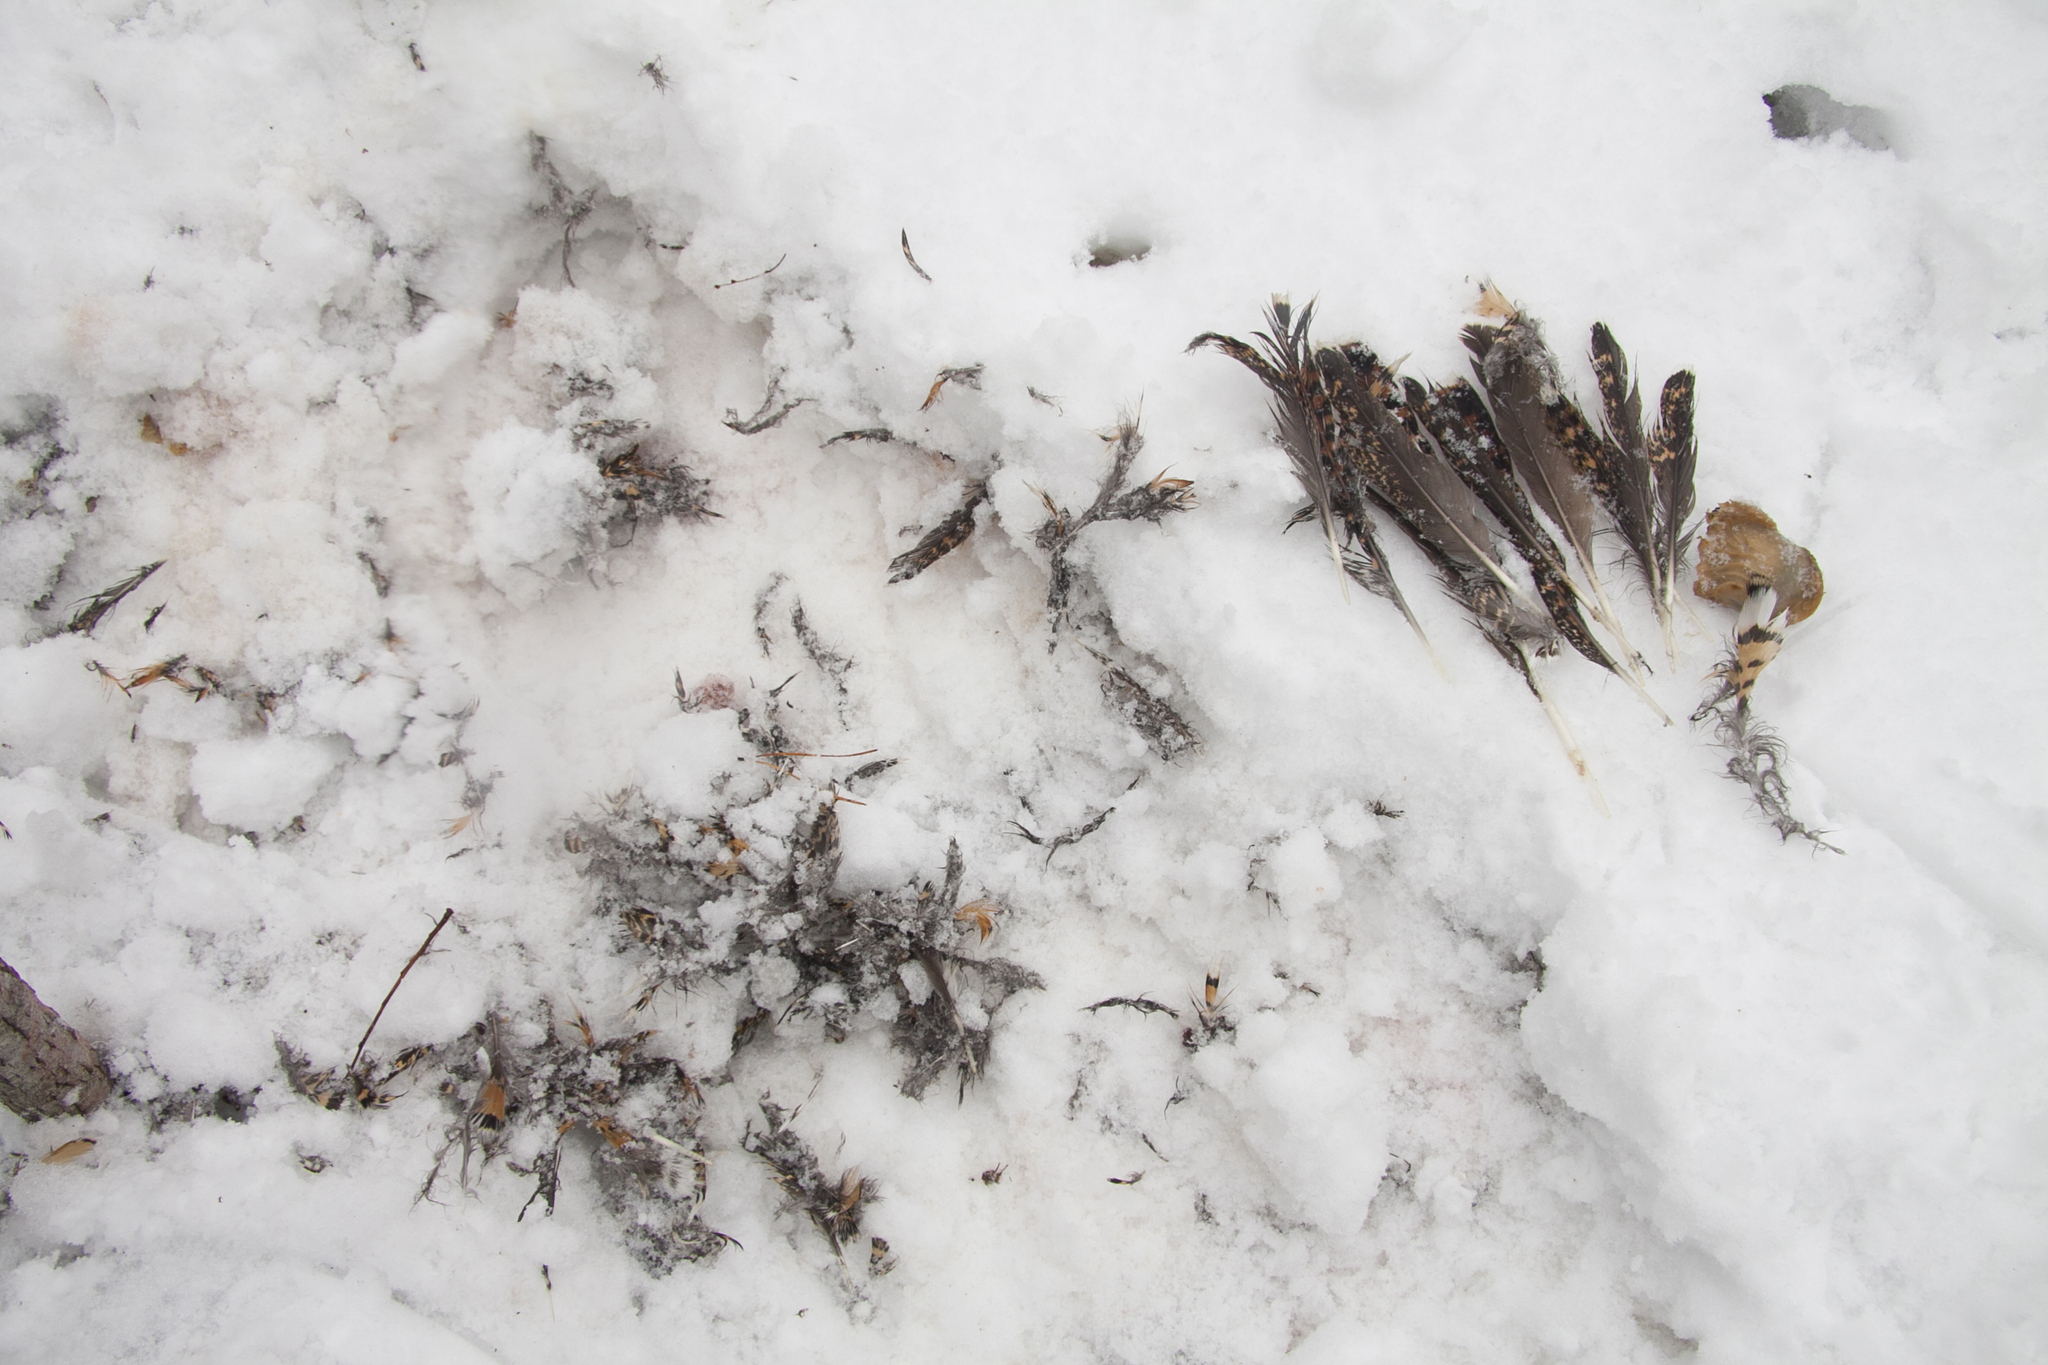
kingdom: Animalia
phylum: Chordata
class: Aves
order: Galliformes
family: Phasianidae
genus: Tetrao
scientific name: Tetrao urogallus
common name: Western capercaillie
